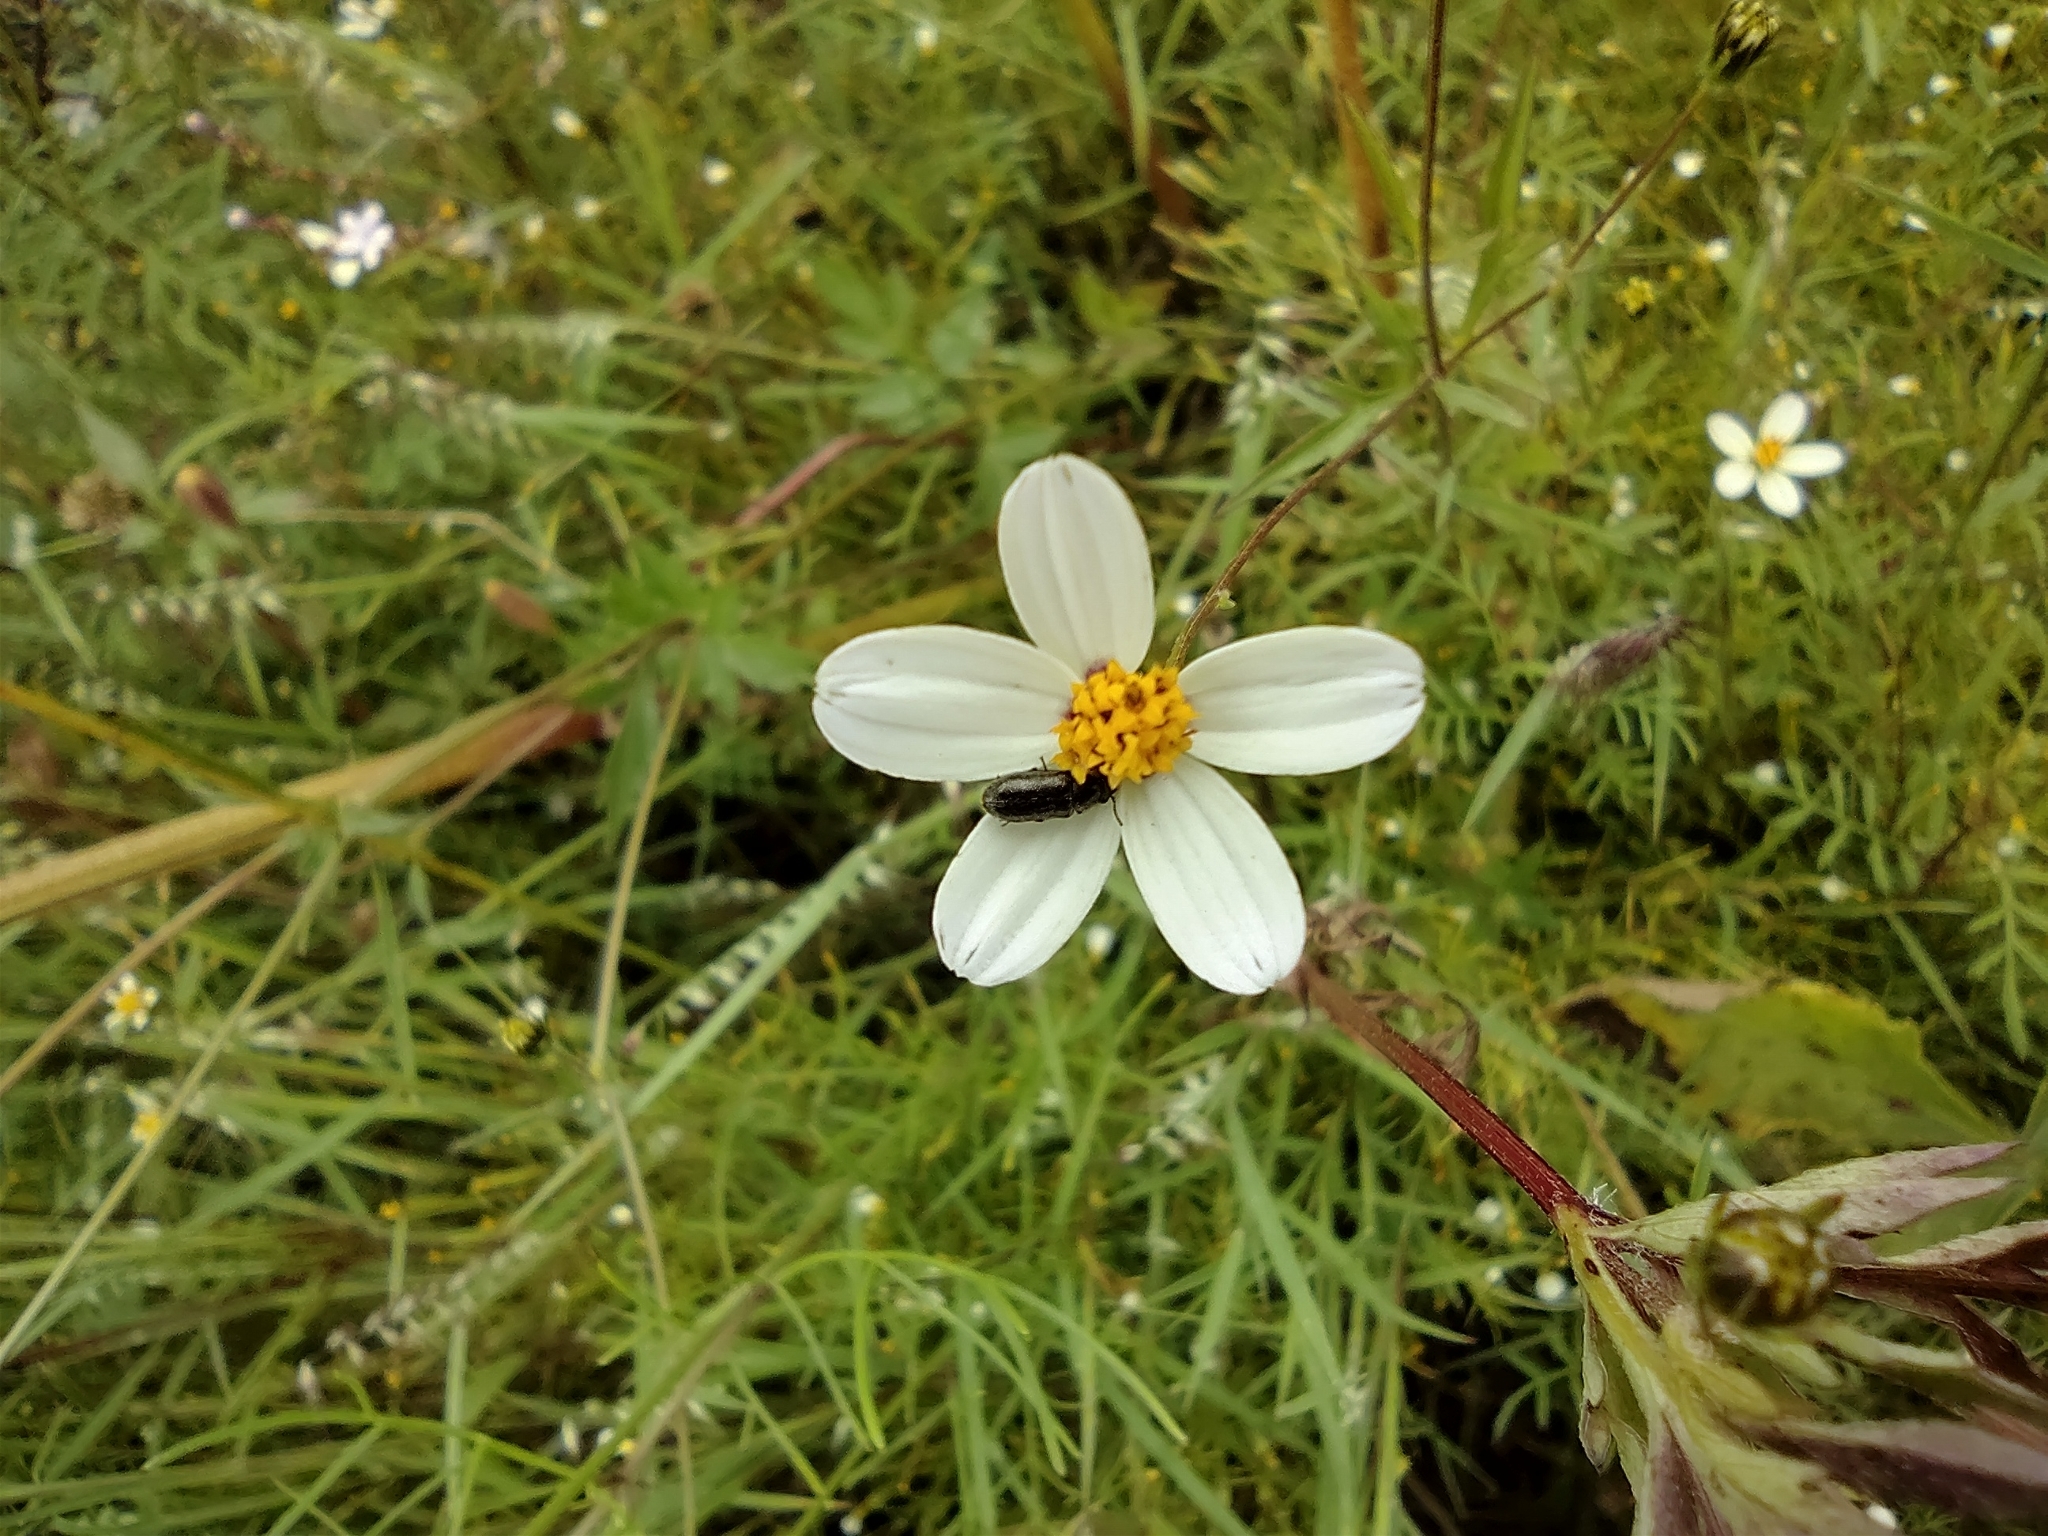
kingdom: Plantae
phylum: Tracheophyta
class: Magnoliopsida
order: Asterales
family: Asteraceae
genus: Bidens
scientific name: Bidens odorata
